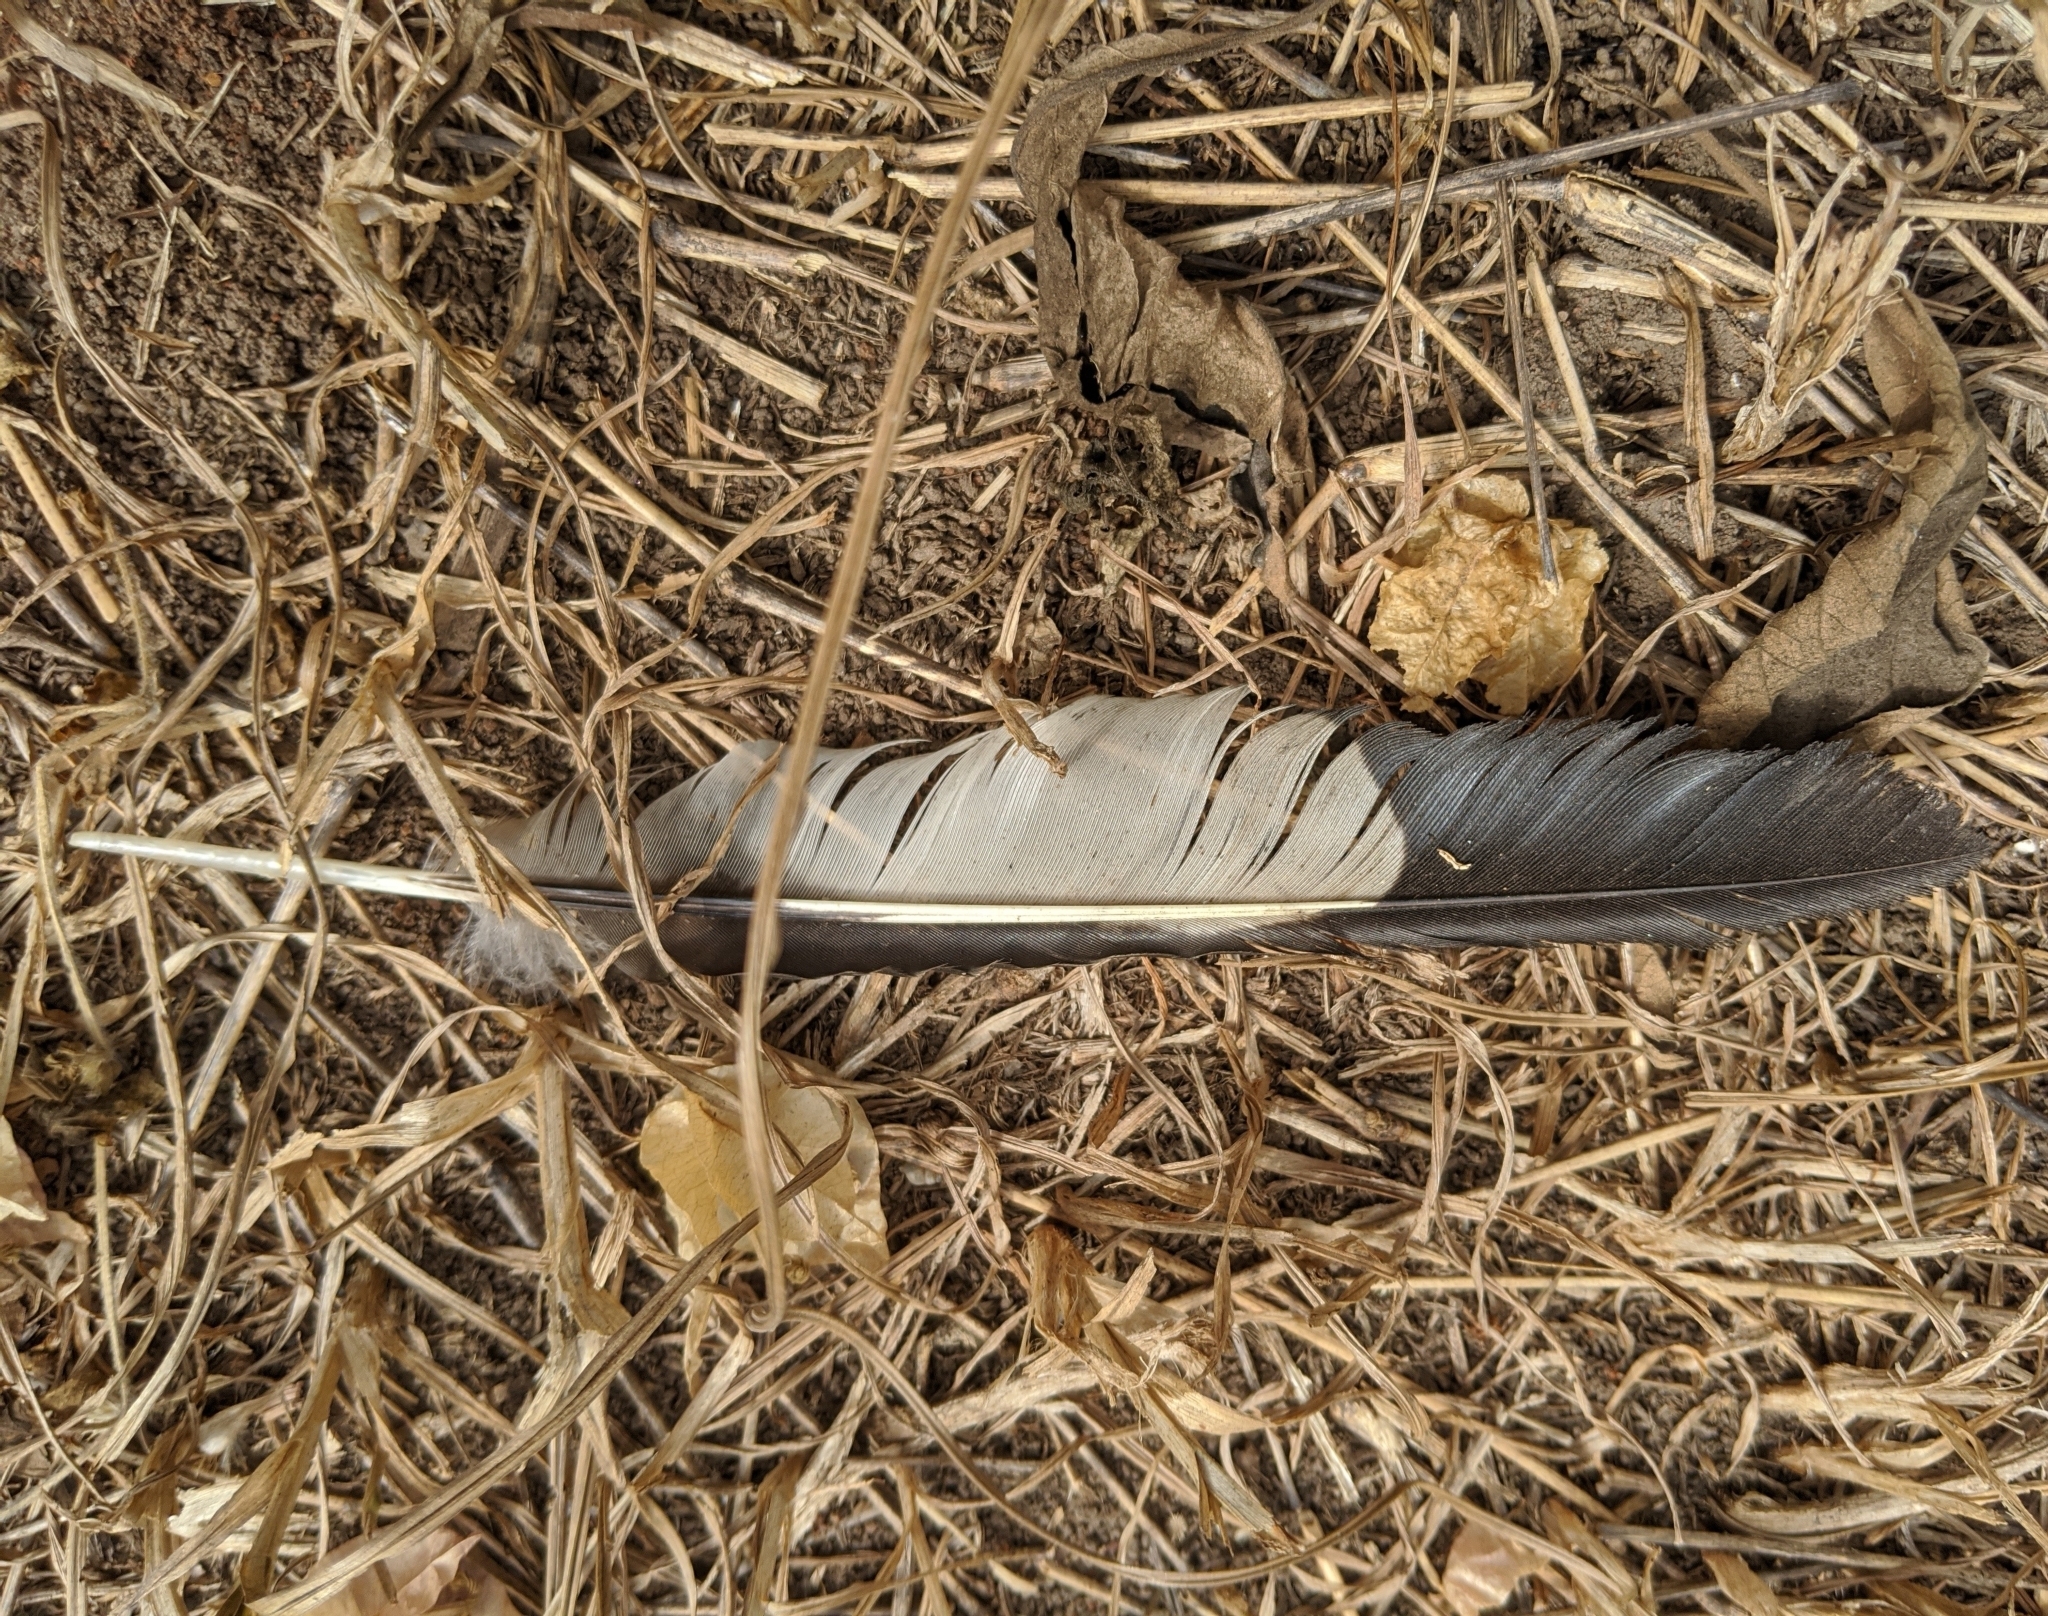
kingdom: Animalia
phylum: Chordata
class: Aves
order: Musophagiformes
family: Musophagidae
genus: Crinifer
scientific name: Crinifer piscator
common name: Western plantain-eater
